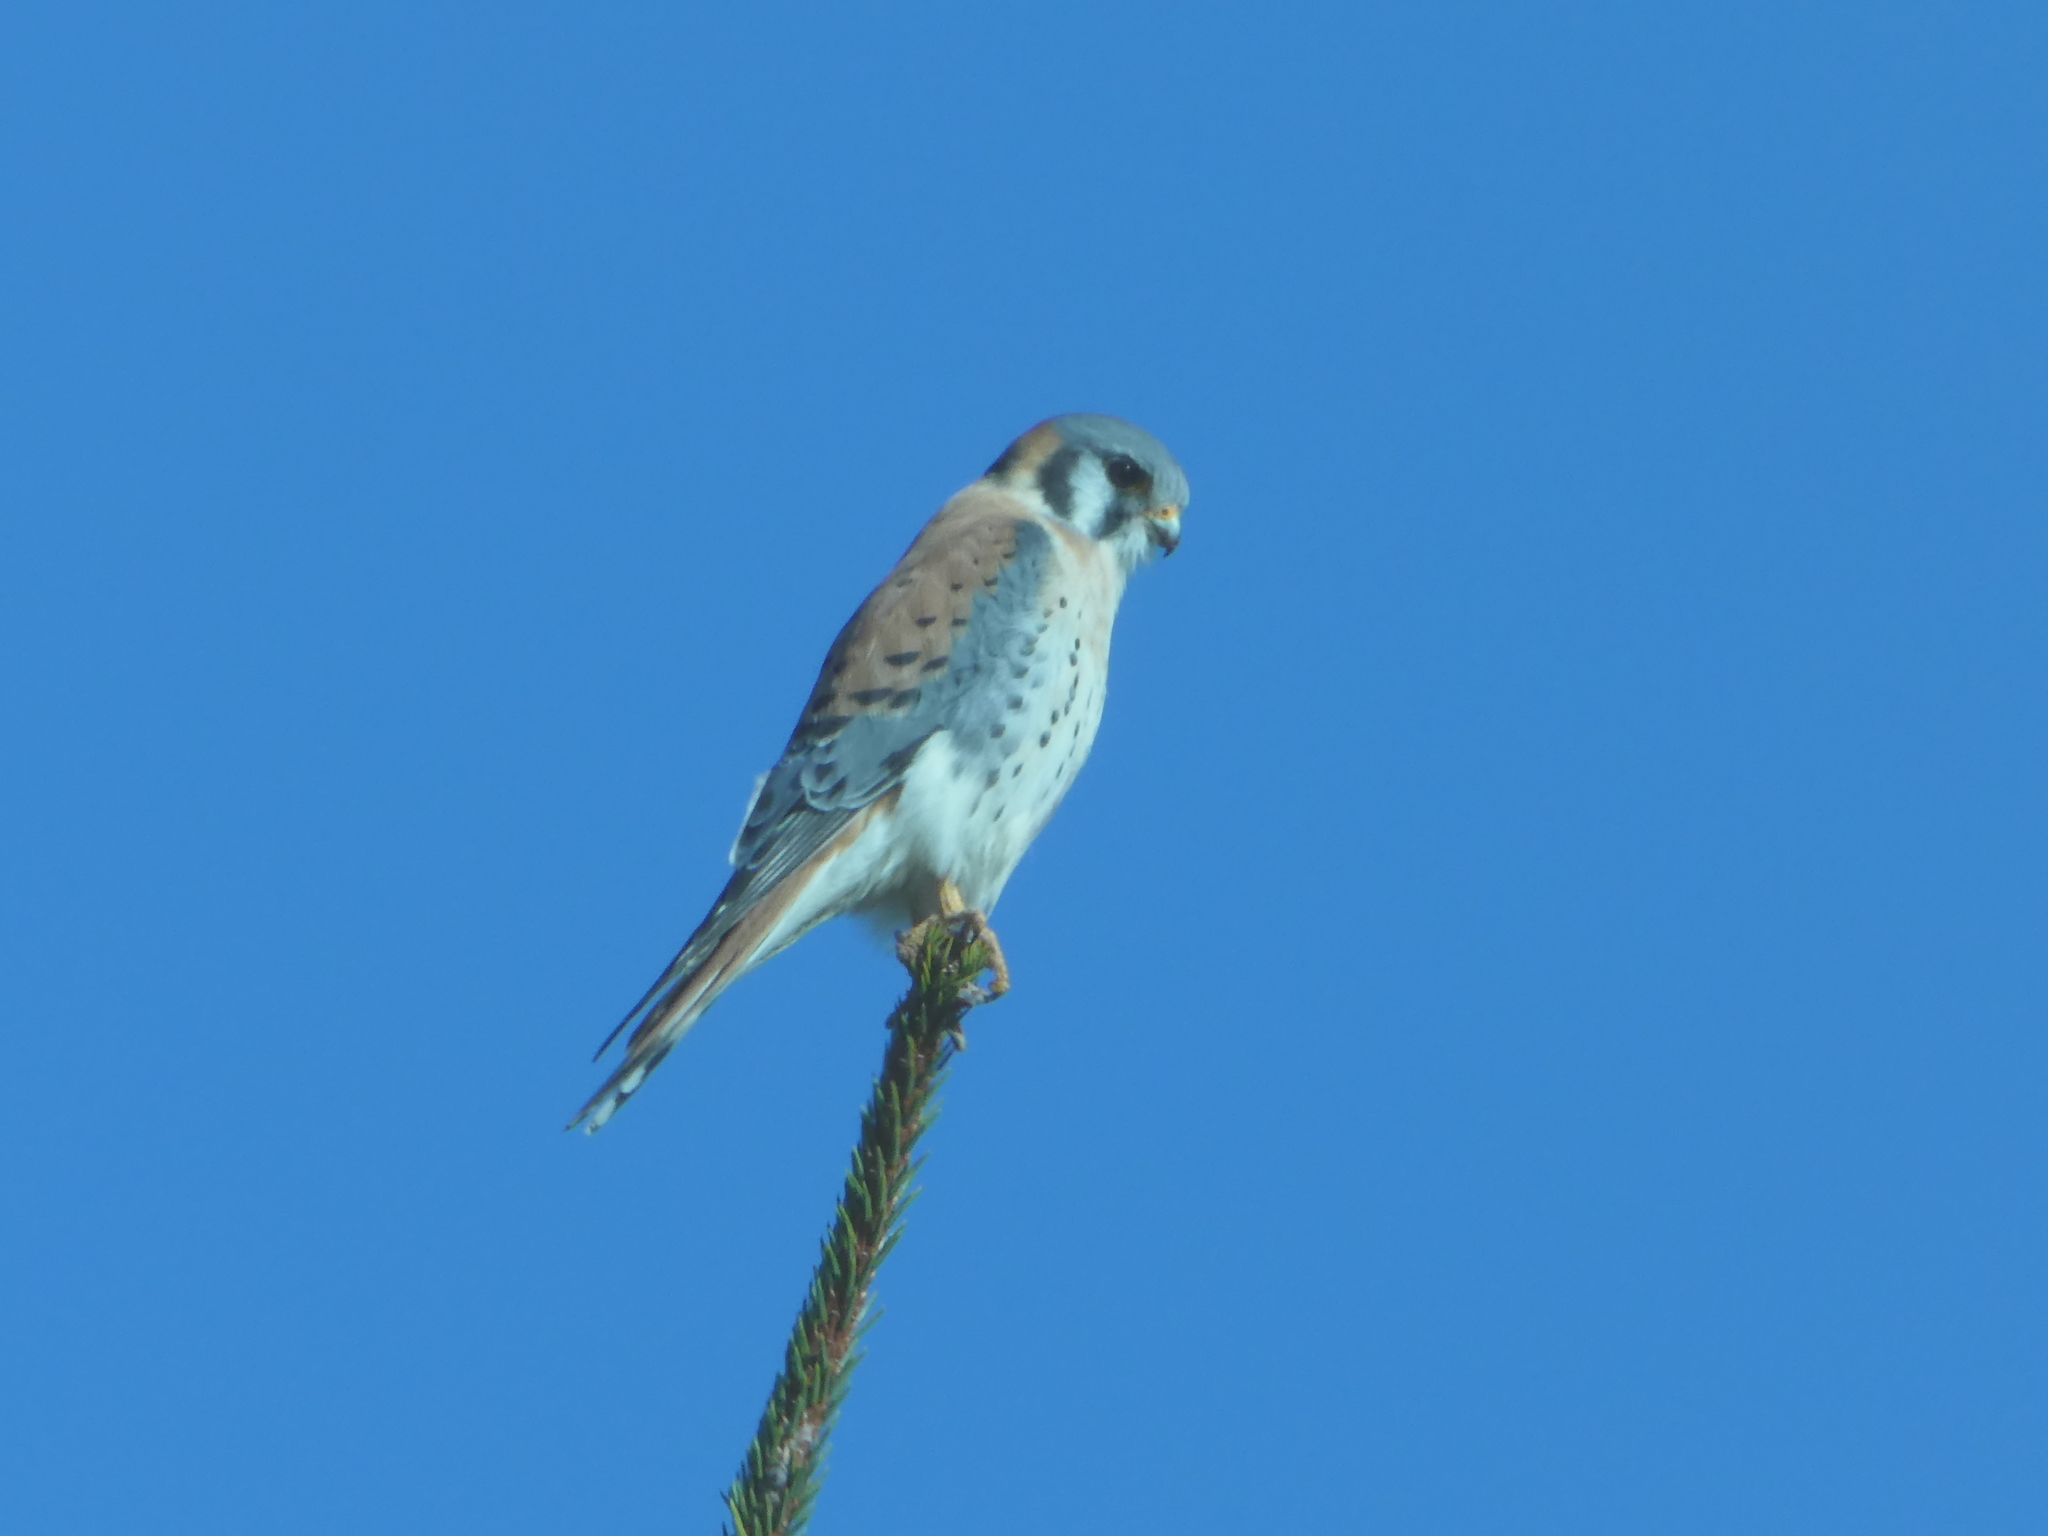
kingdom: Animalia
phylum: Chordata
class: Aves
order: Falconiformes
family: Falconidae
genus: Falco
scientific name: Falco sparverius
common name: American kestrel
